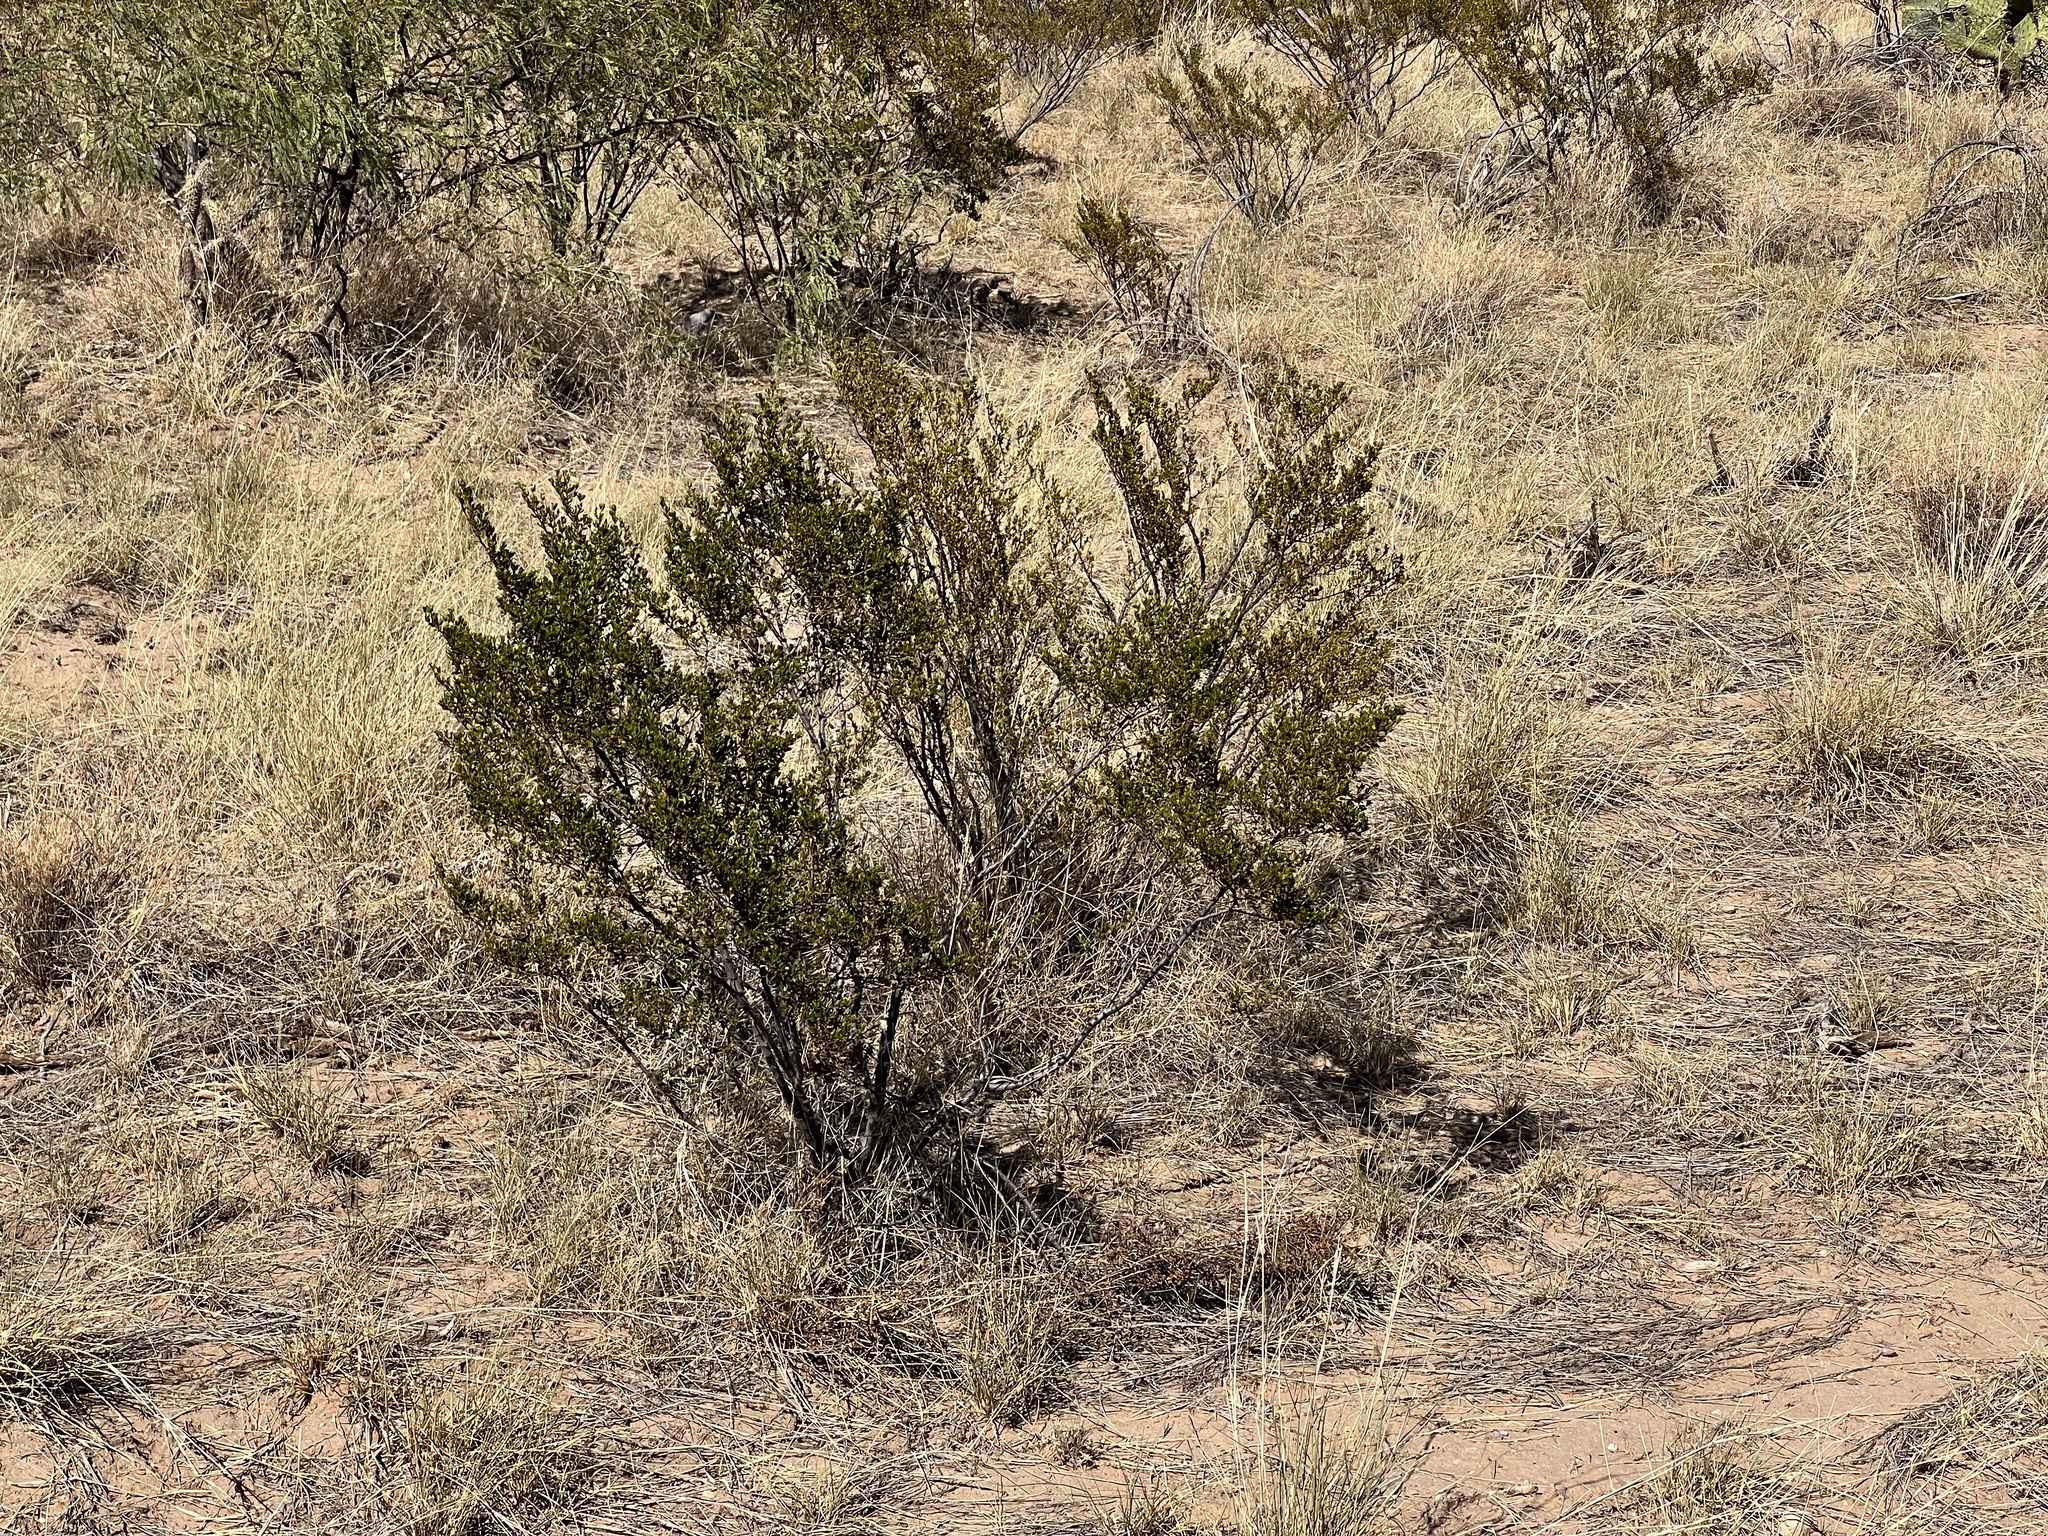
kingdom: Plantae
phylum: Tracheophyta
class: Magnoliopsida
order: Zygophyllales
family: Zygophyllaceae
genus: Larrea
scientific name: Larrea tridentata
